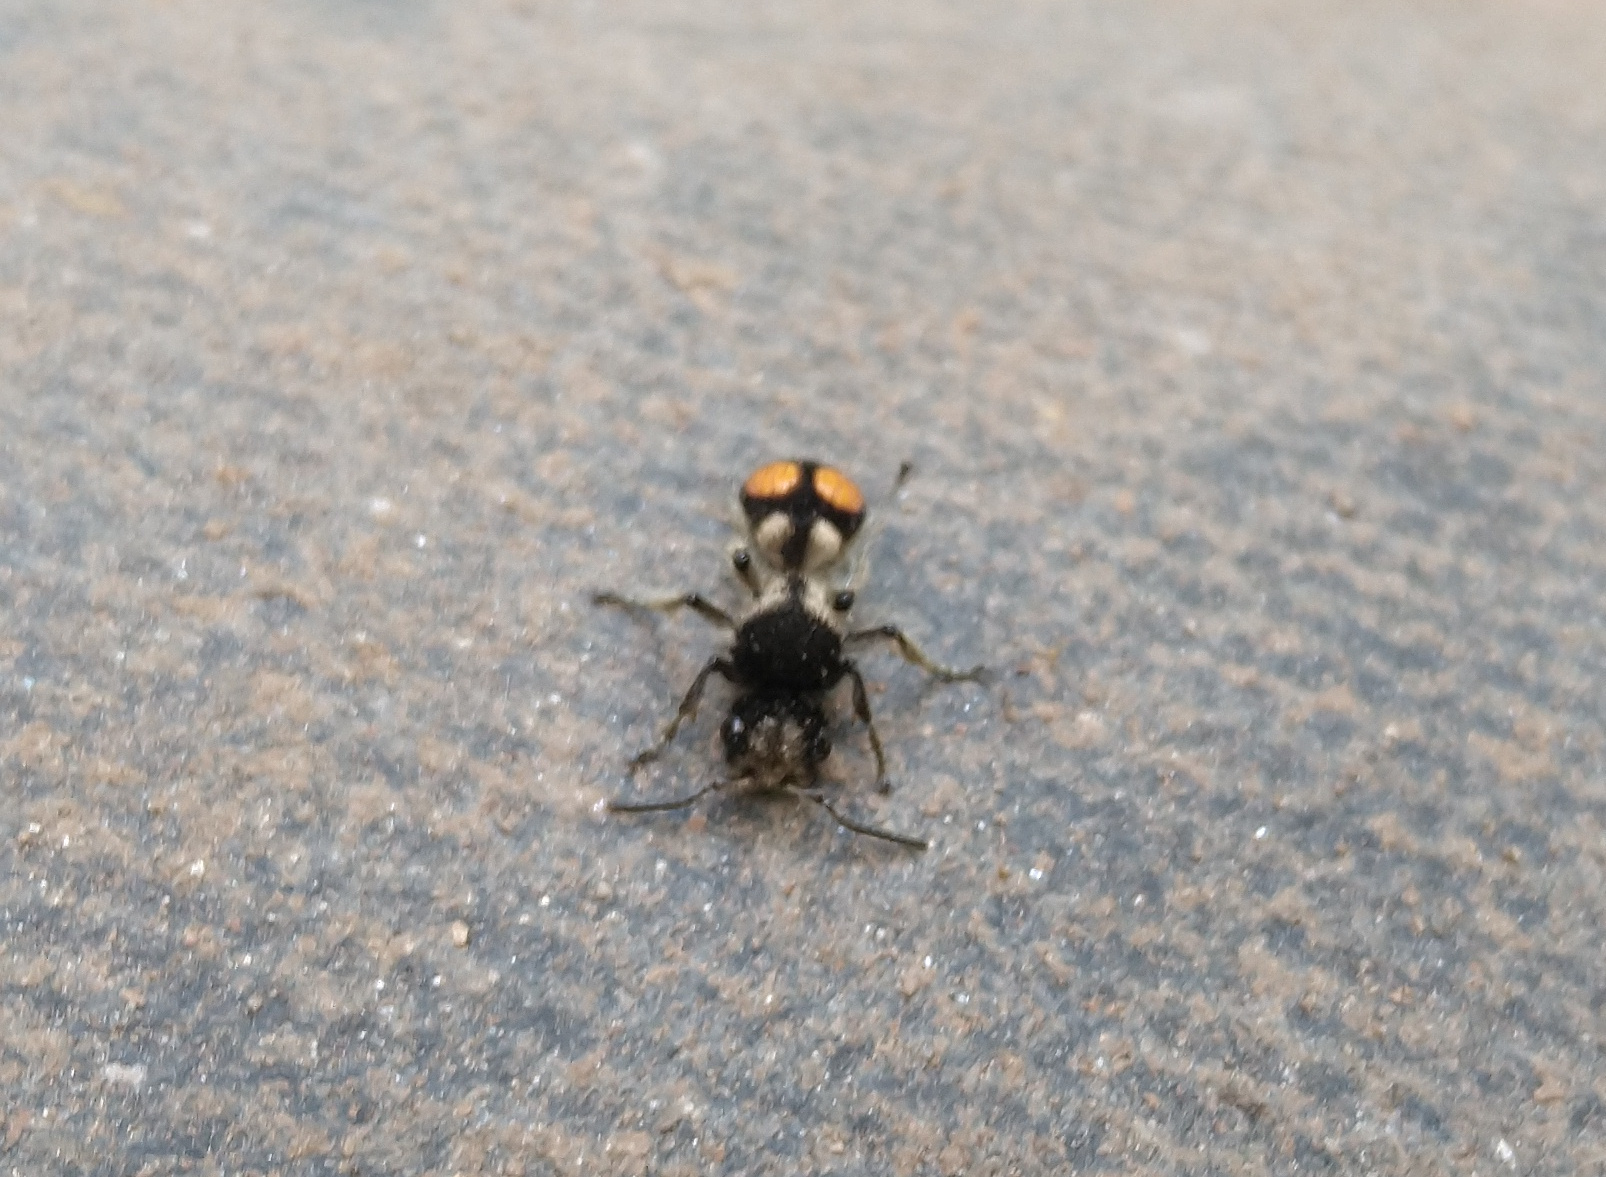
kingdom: Animalia
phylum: Arthropoda
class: Insecta
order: Hymenoptera
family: Mutillidae
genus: Hoplomutilla
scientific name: Hoplomutilla
